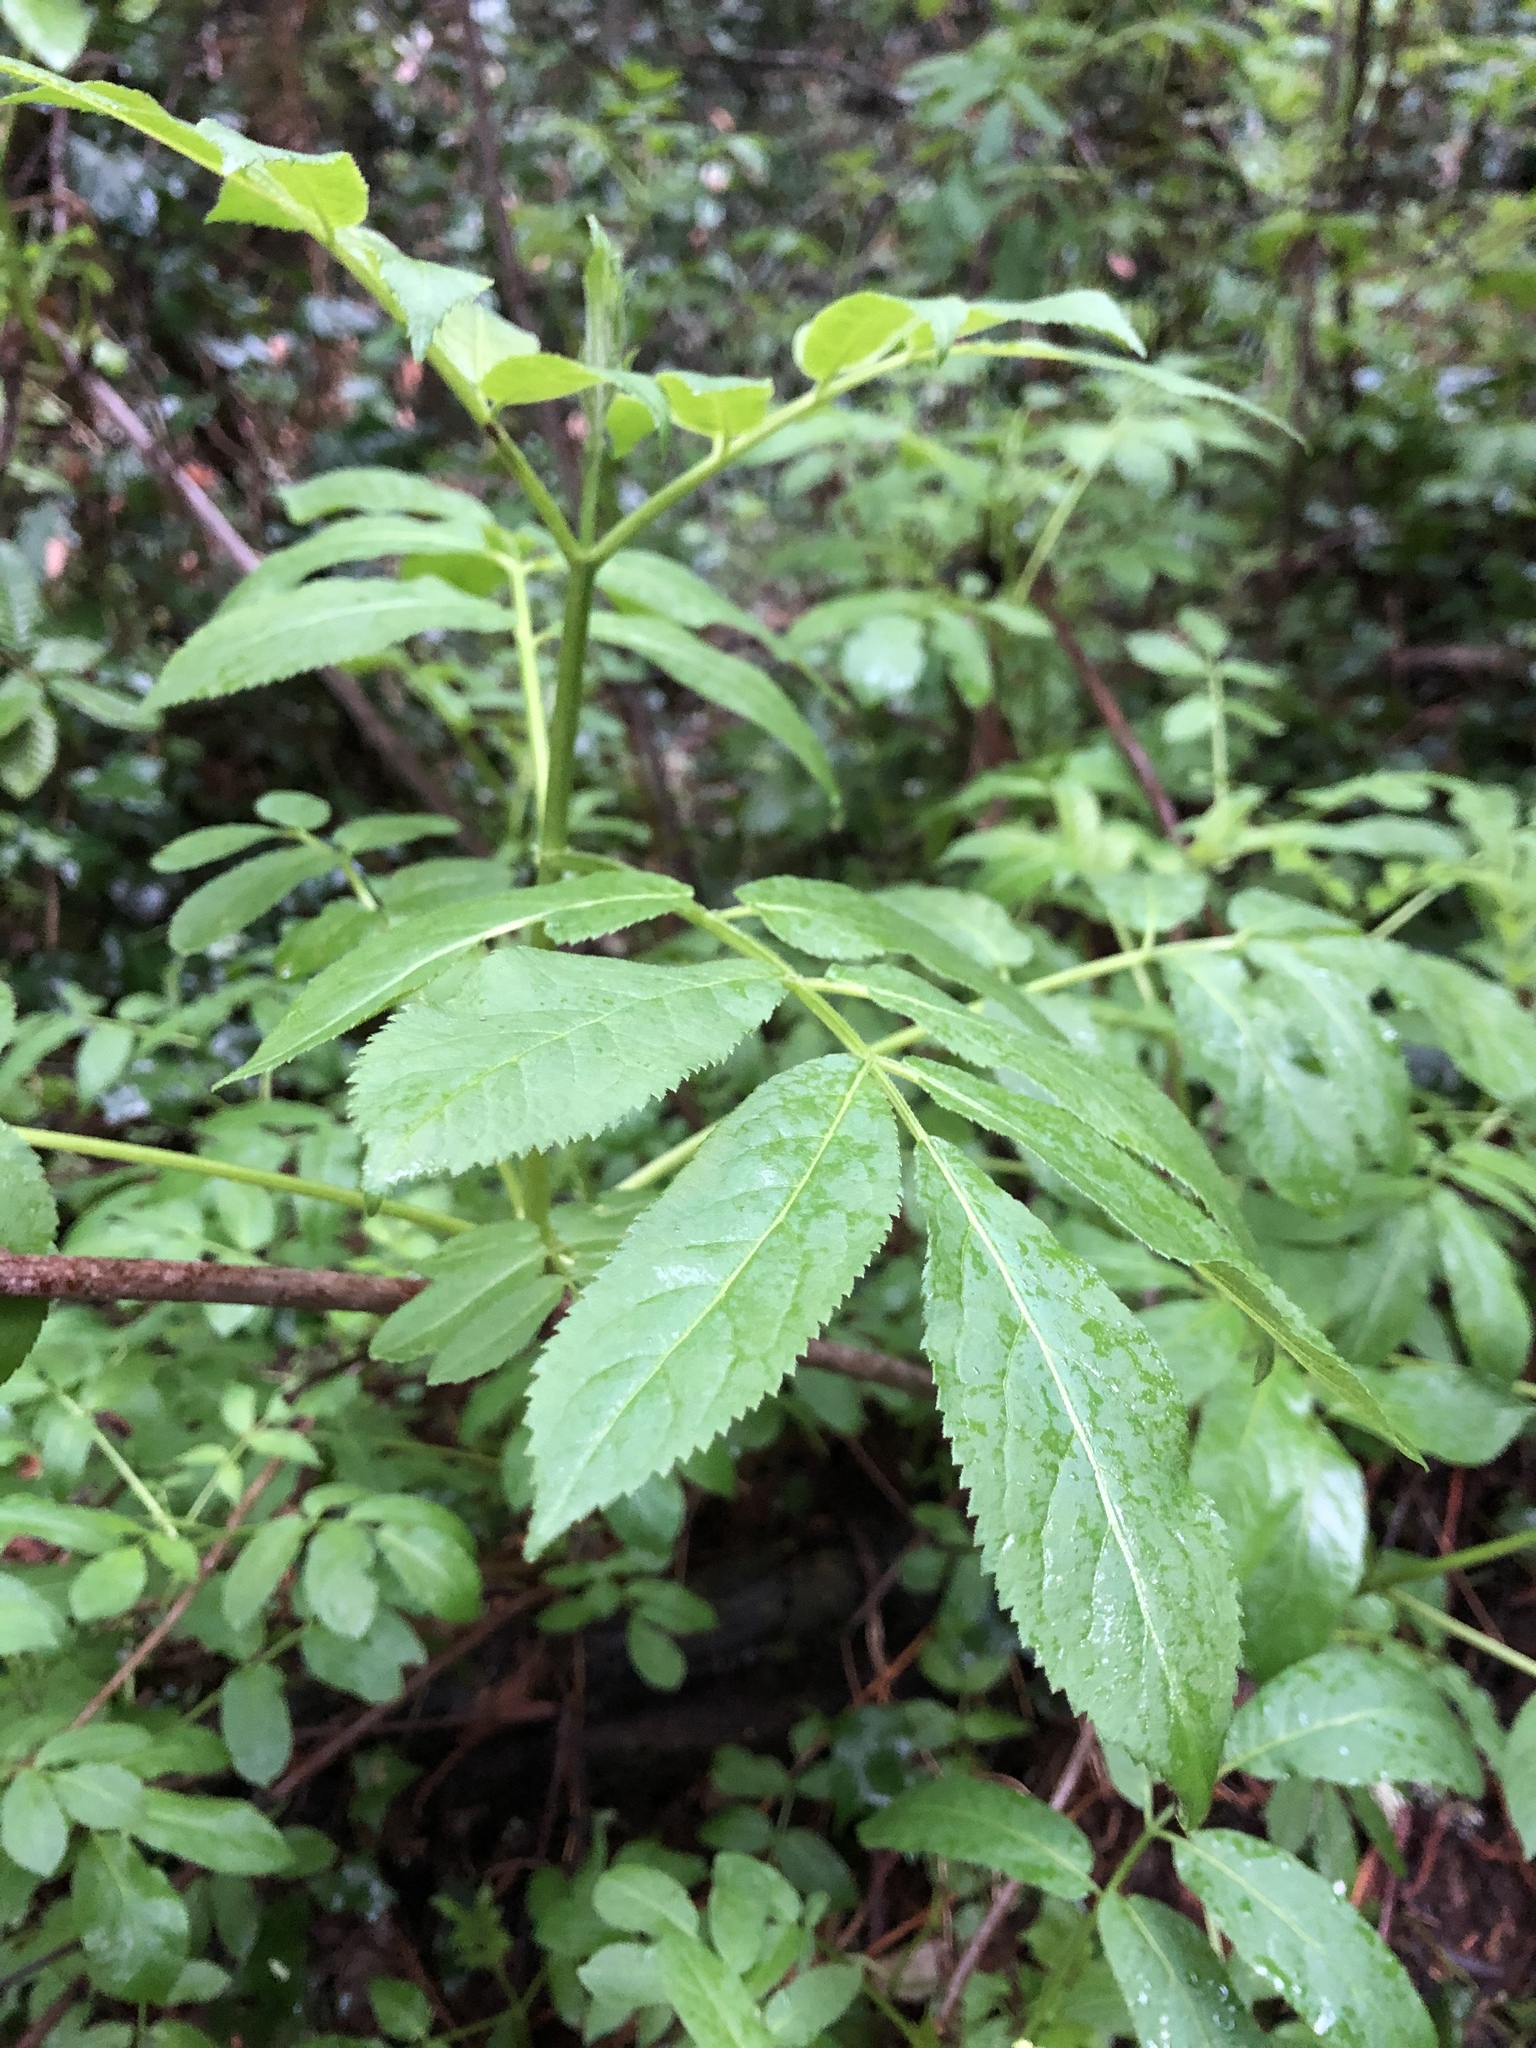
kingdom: Plantae
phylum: Tracheophyta
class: Magnoliopsida
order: Dipsacales
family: Viburnaceae
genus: Sambucus
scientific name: Sambucus racemosa
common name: Red-berried elder
